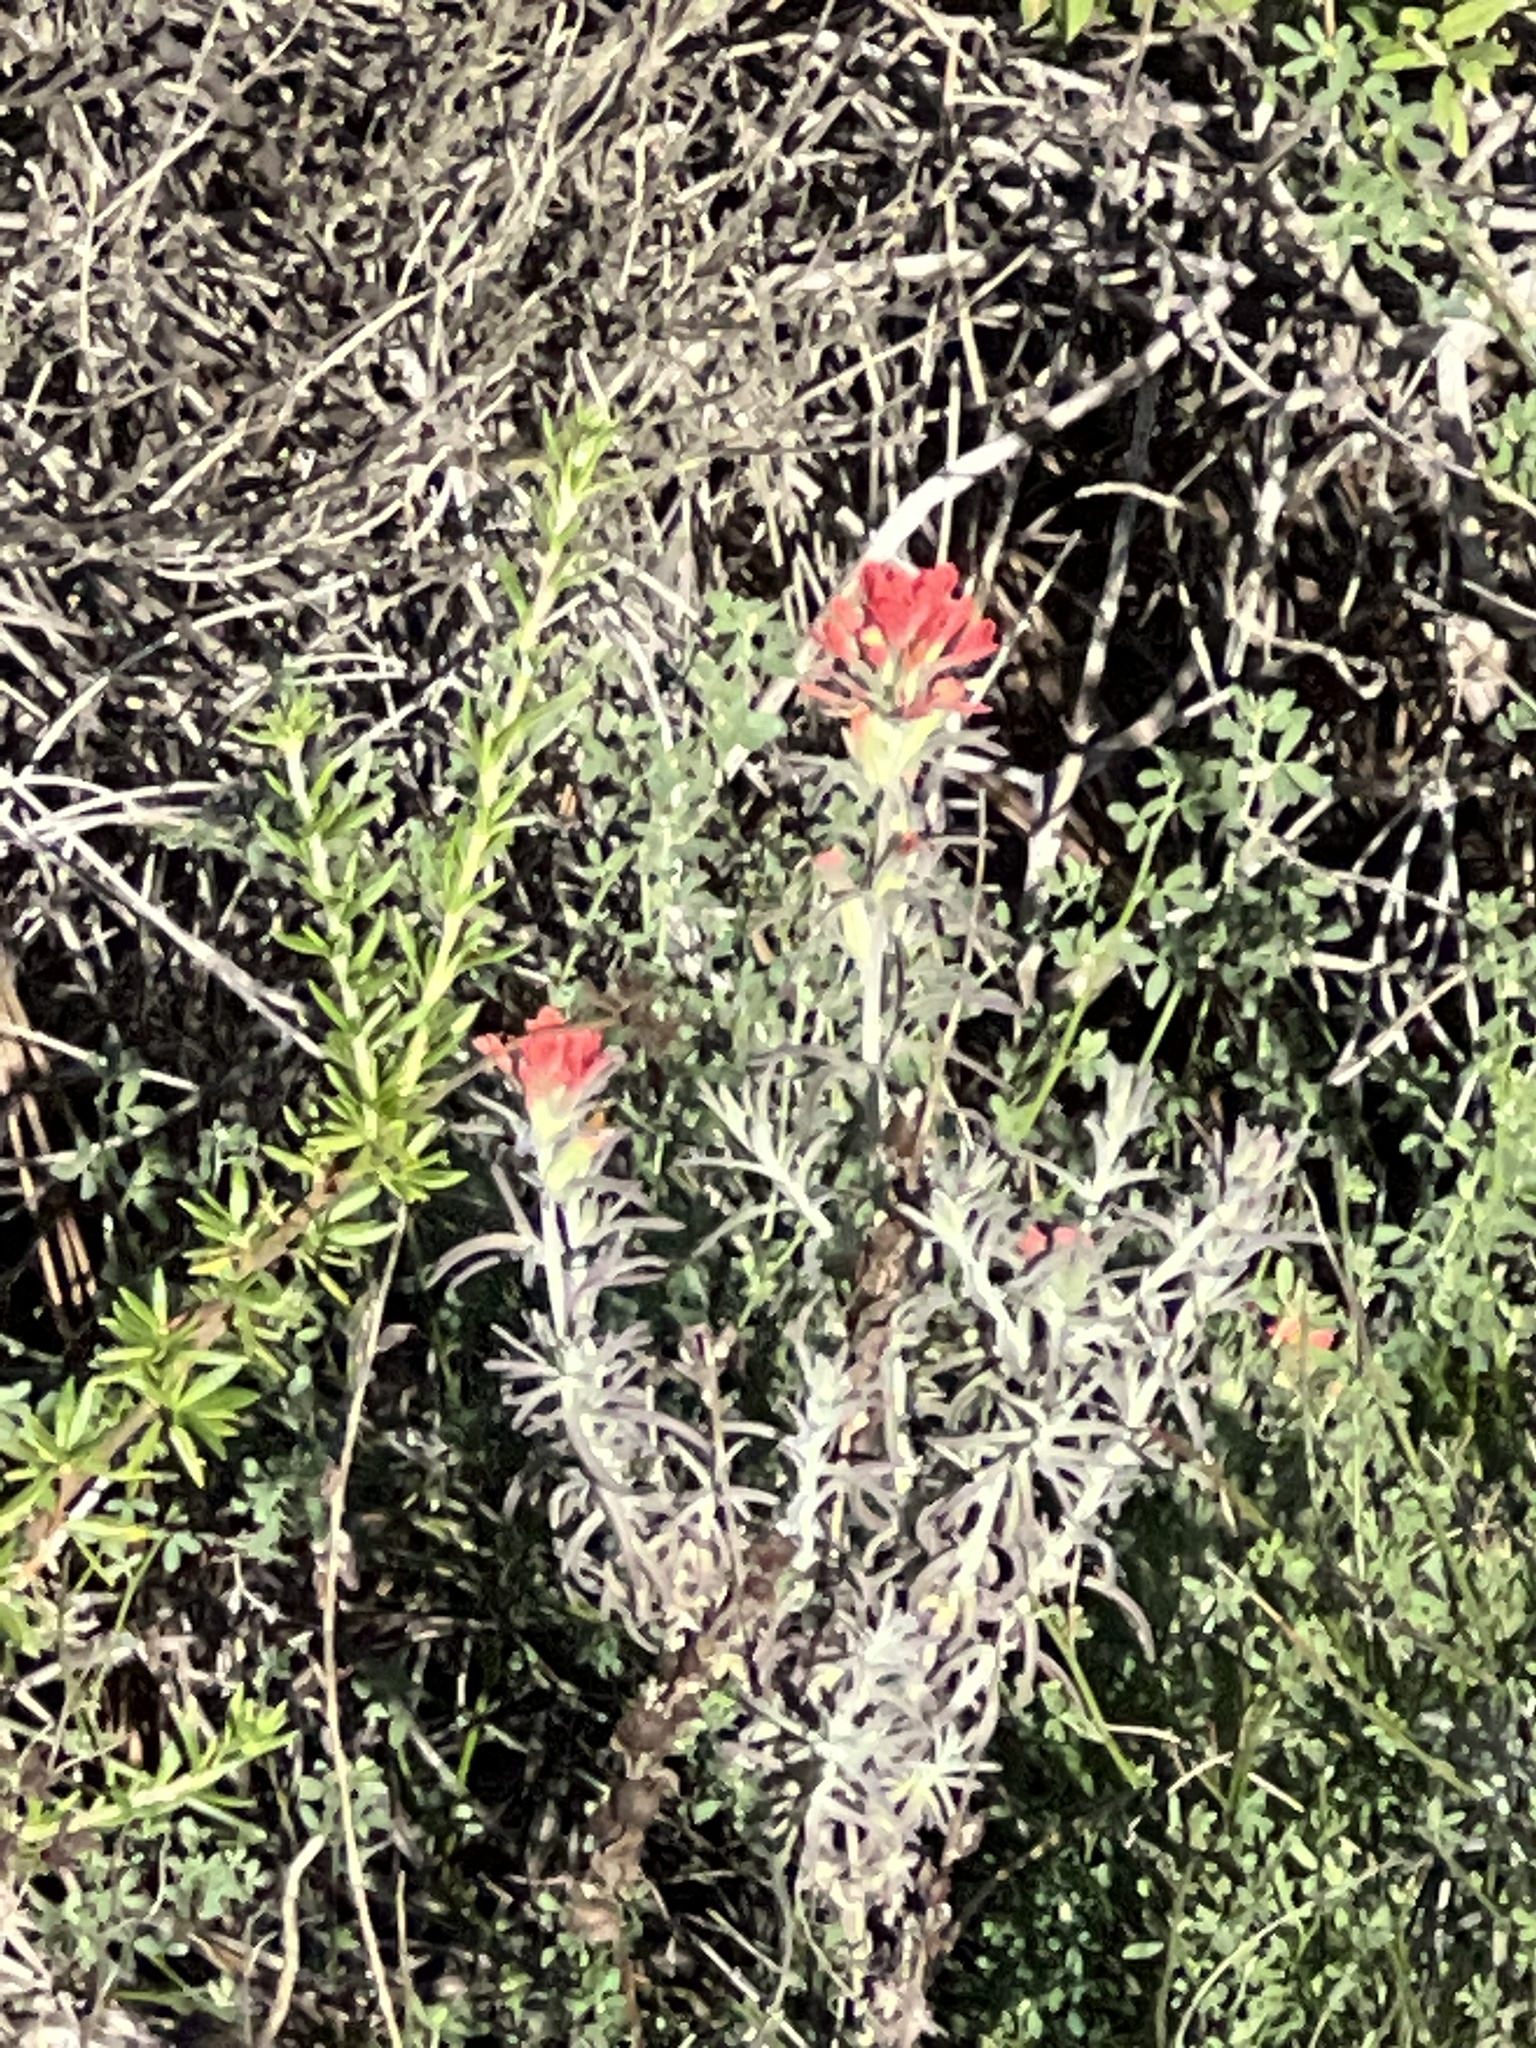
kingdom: Plantae
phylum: Tracheophyta
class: Magnoliopsida
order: Lamiales
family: Orobanchaceae
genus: Castilleja
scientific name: Castilleja foliolosa
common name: Woolly indian paintbrush
